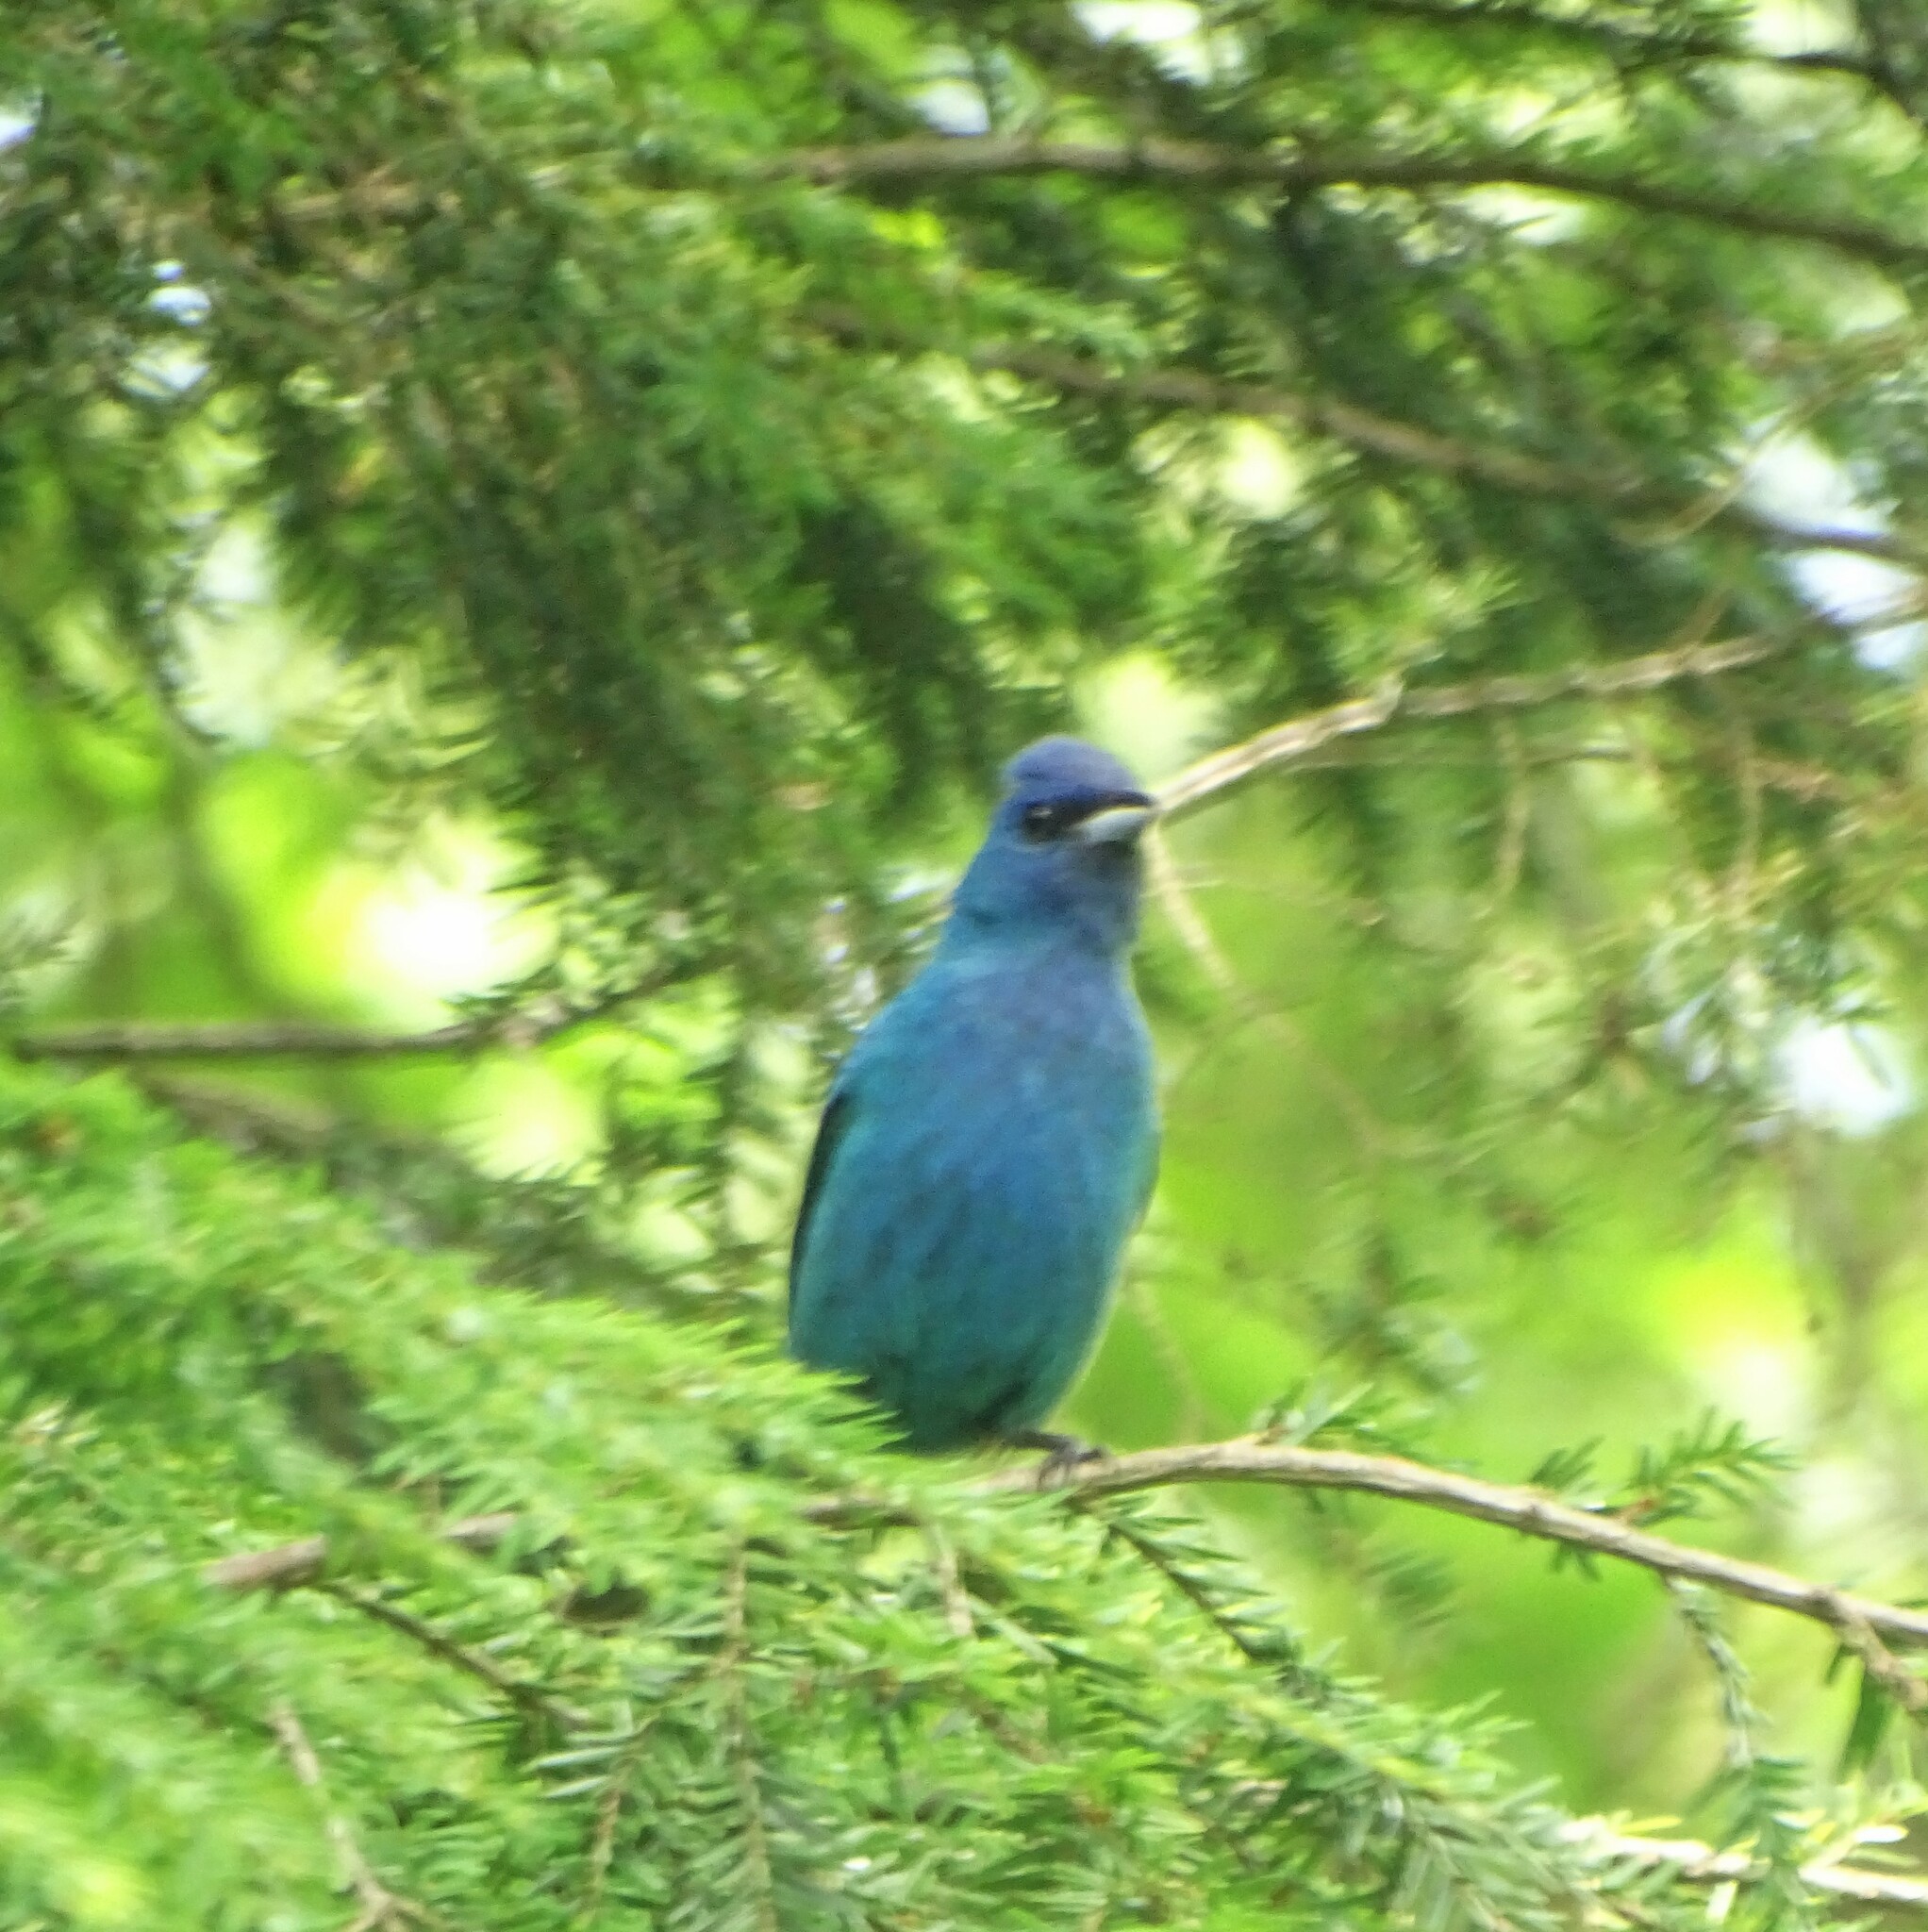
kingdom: Animalia
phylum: Chordata
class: Aves
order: Passeriformes
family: Cardinalidae
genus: Passerina
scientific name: Passerina cyanea
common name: Indigo bunting
